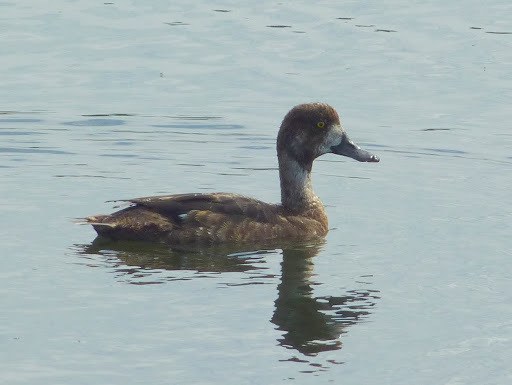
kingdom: Animalia
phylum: Chordata
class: Aves
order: Anseriformes
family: Anatidae
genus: Aythya
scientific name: Aythya affinis
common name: Lesser scaup
